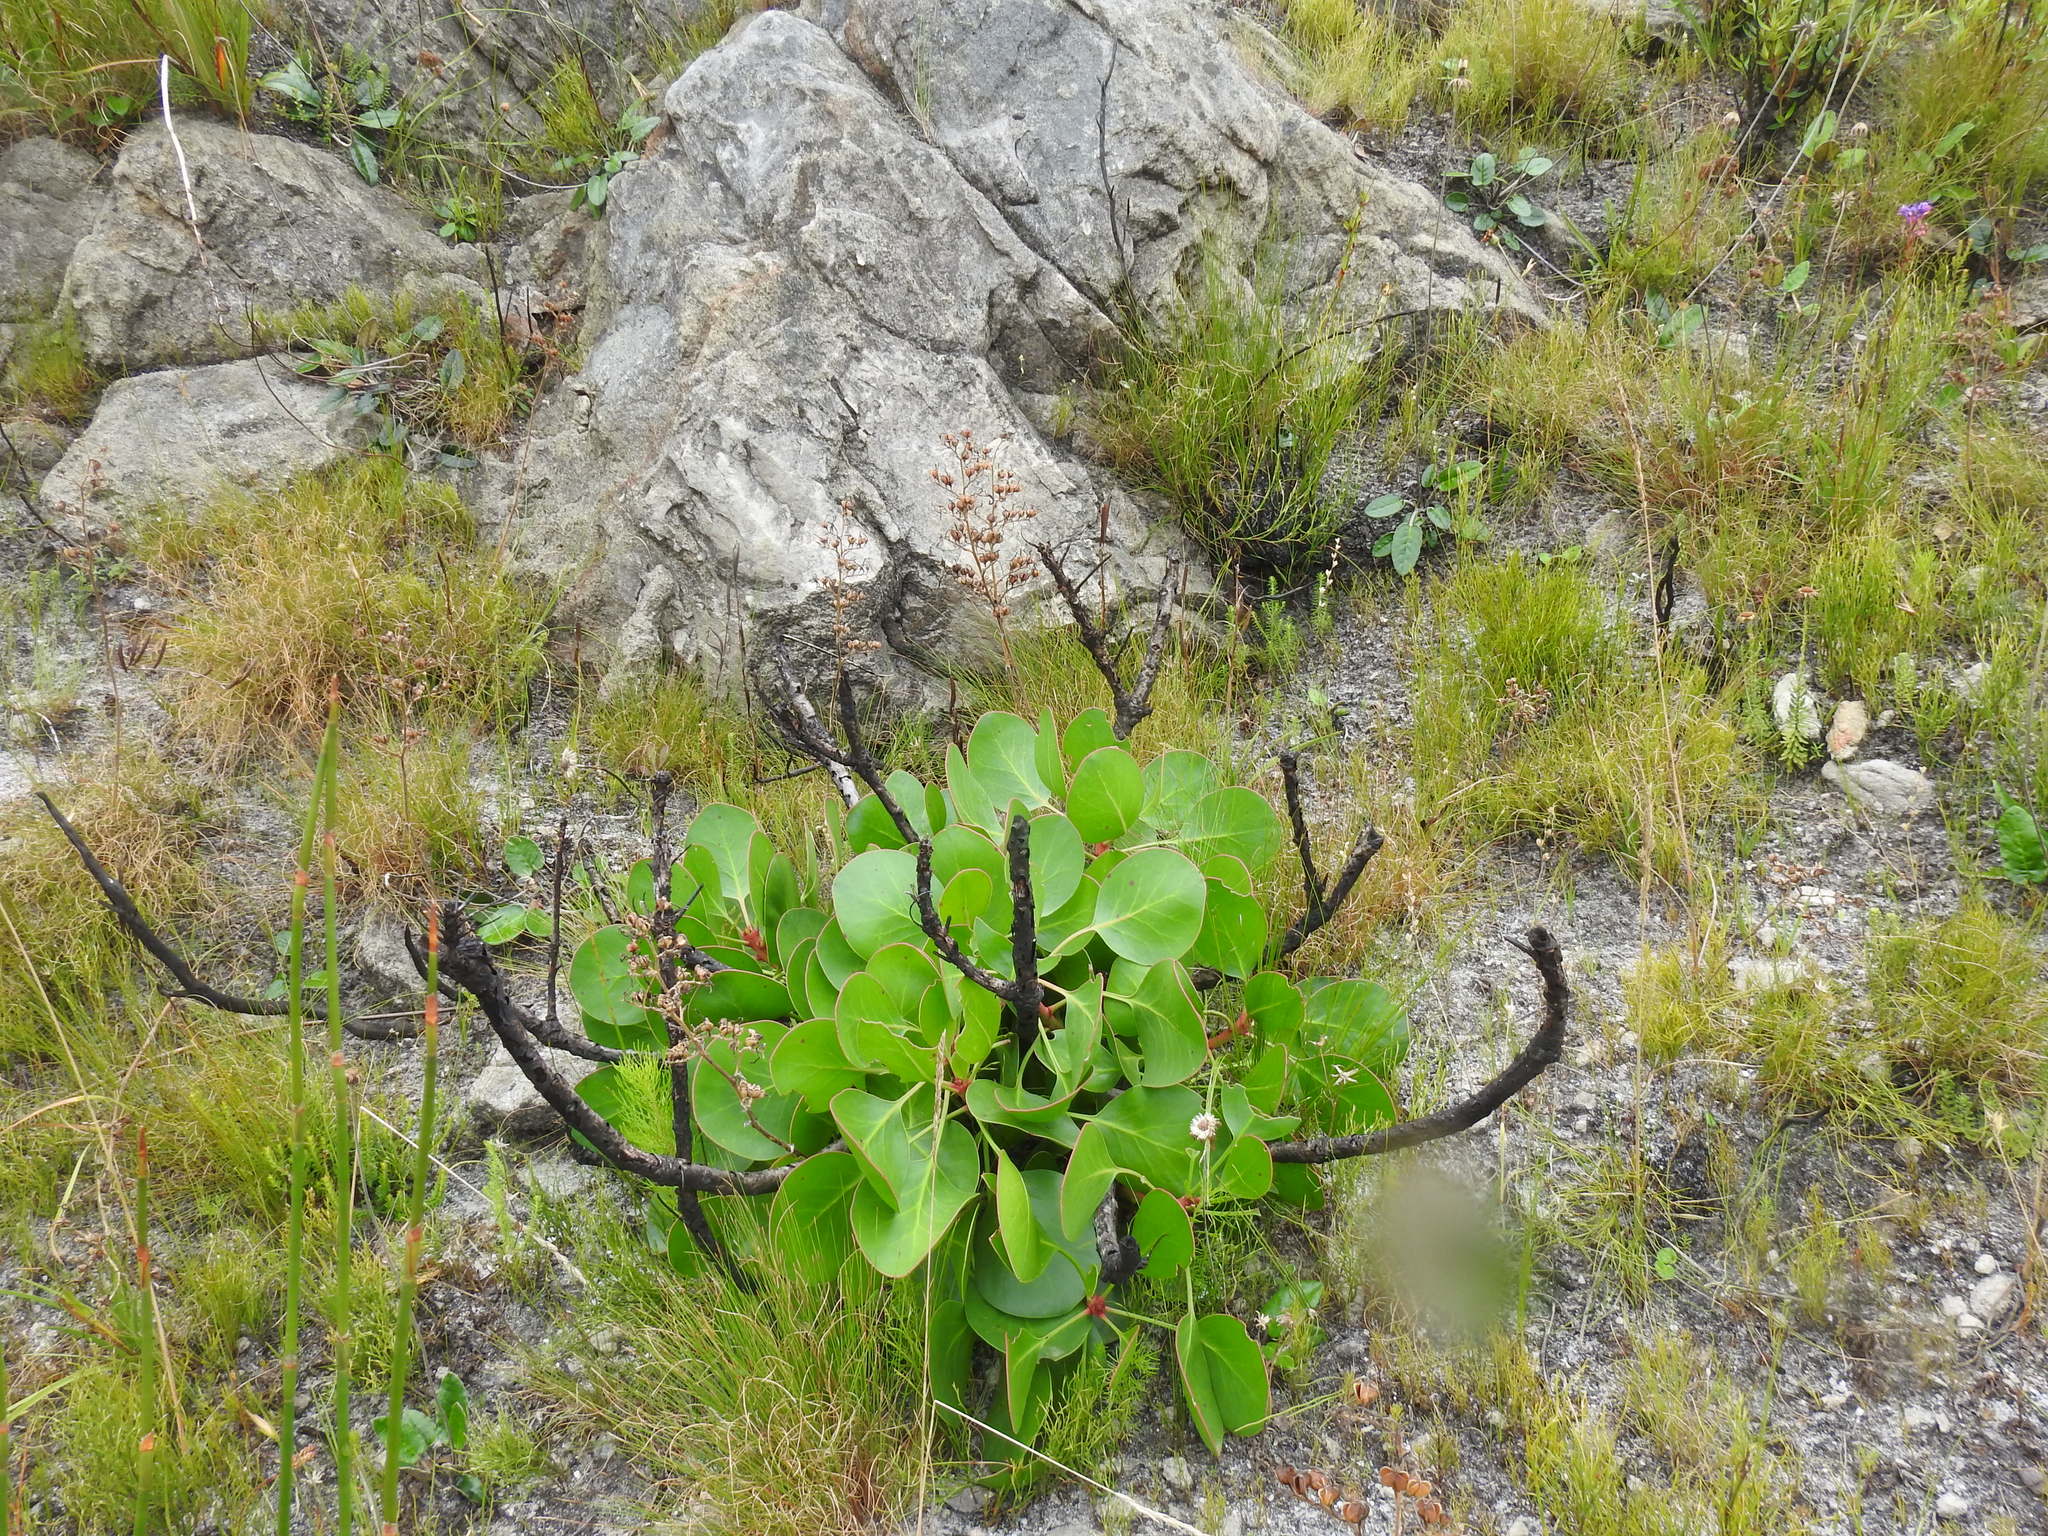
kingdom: Plantae
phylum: Tracheophyta
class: Magnoliopsida
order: Proteales
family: Proteaceae
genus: Protea
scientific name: Protea cynaroides
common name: King protea
